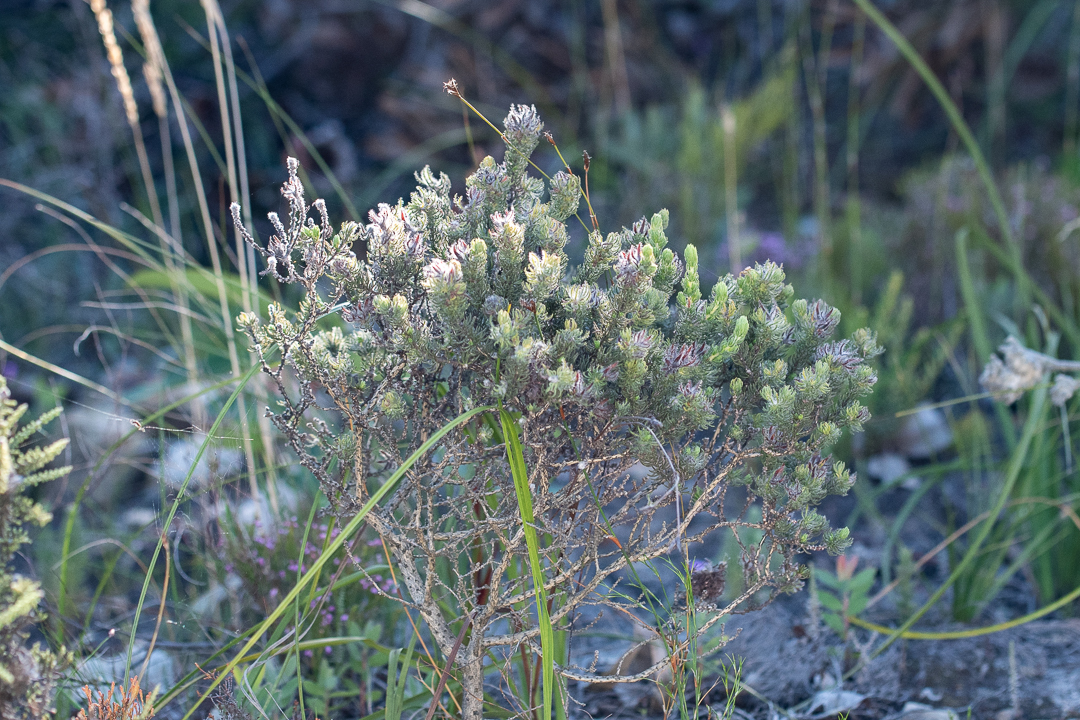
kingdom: Plantae
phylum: Tracheophyta
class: Magnoliopsida
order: Fabales
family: Fabaceae
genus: Aspalathus
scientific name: Aspalathus ciliaris
